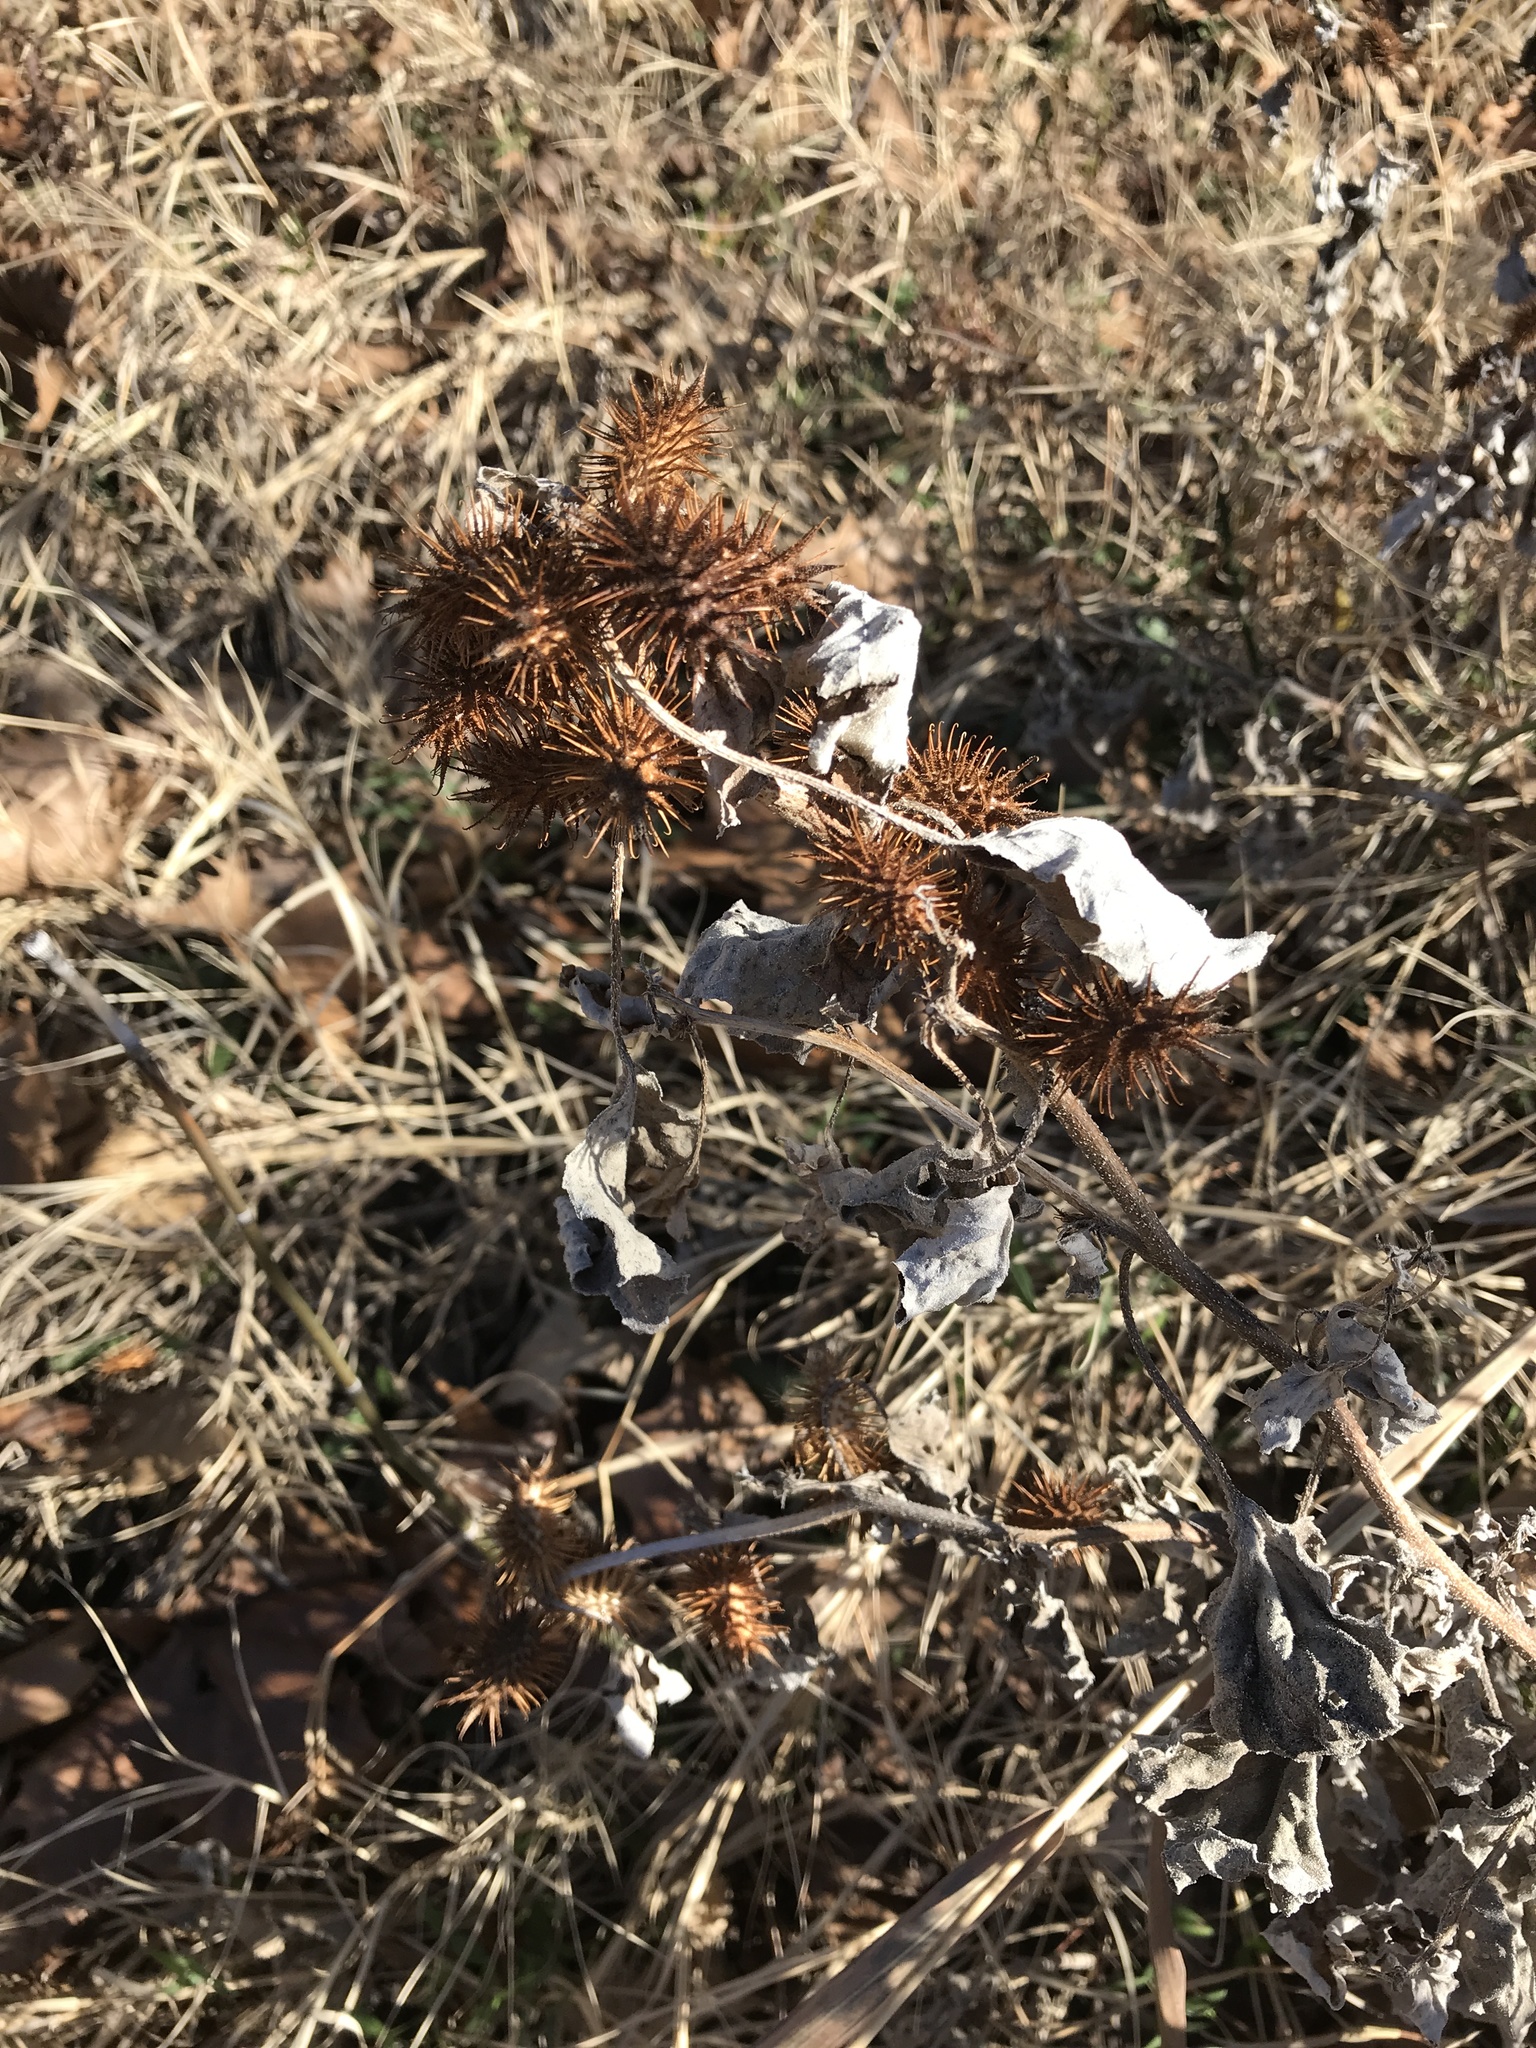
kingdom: Plantae
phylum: Tracheophyta
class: Magnoliopsida
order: Asterales
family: Asteraceae
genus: Xanthium
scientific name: Xanthium strumarium
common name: Rough cocklebur
